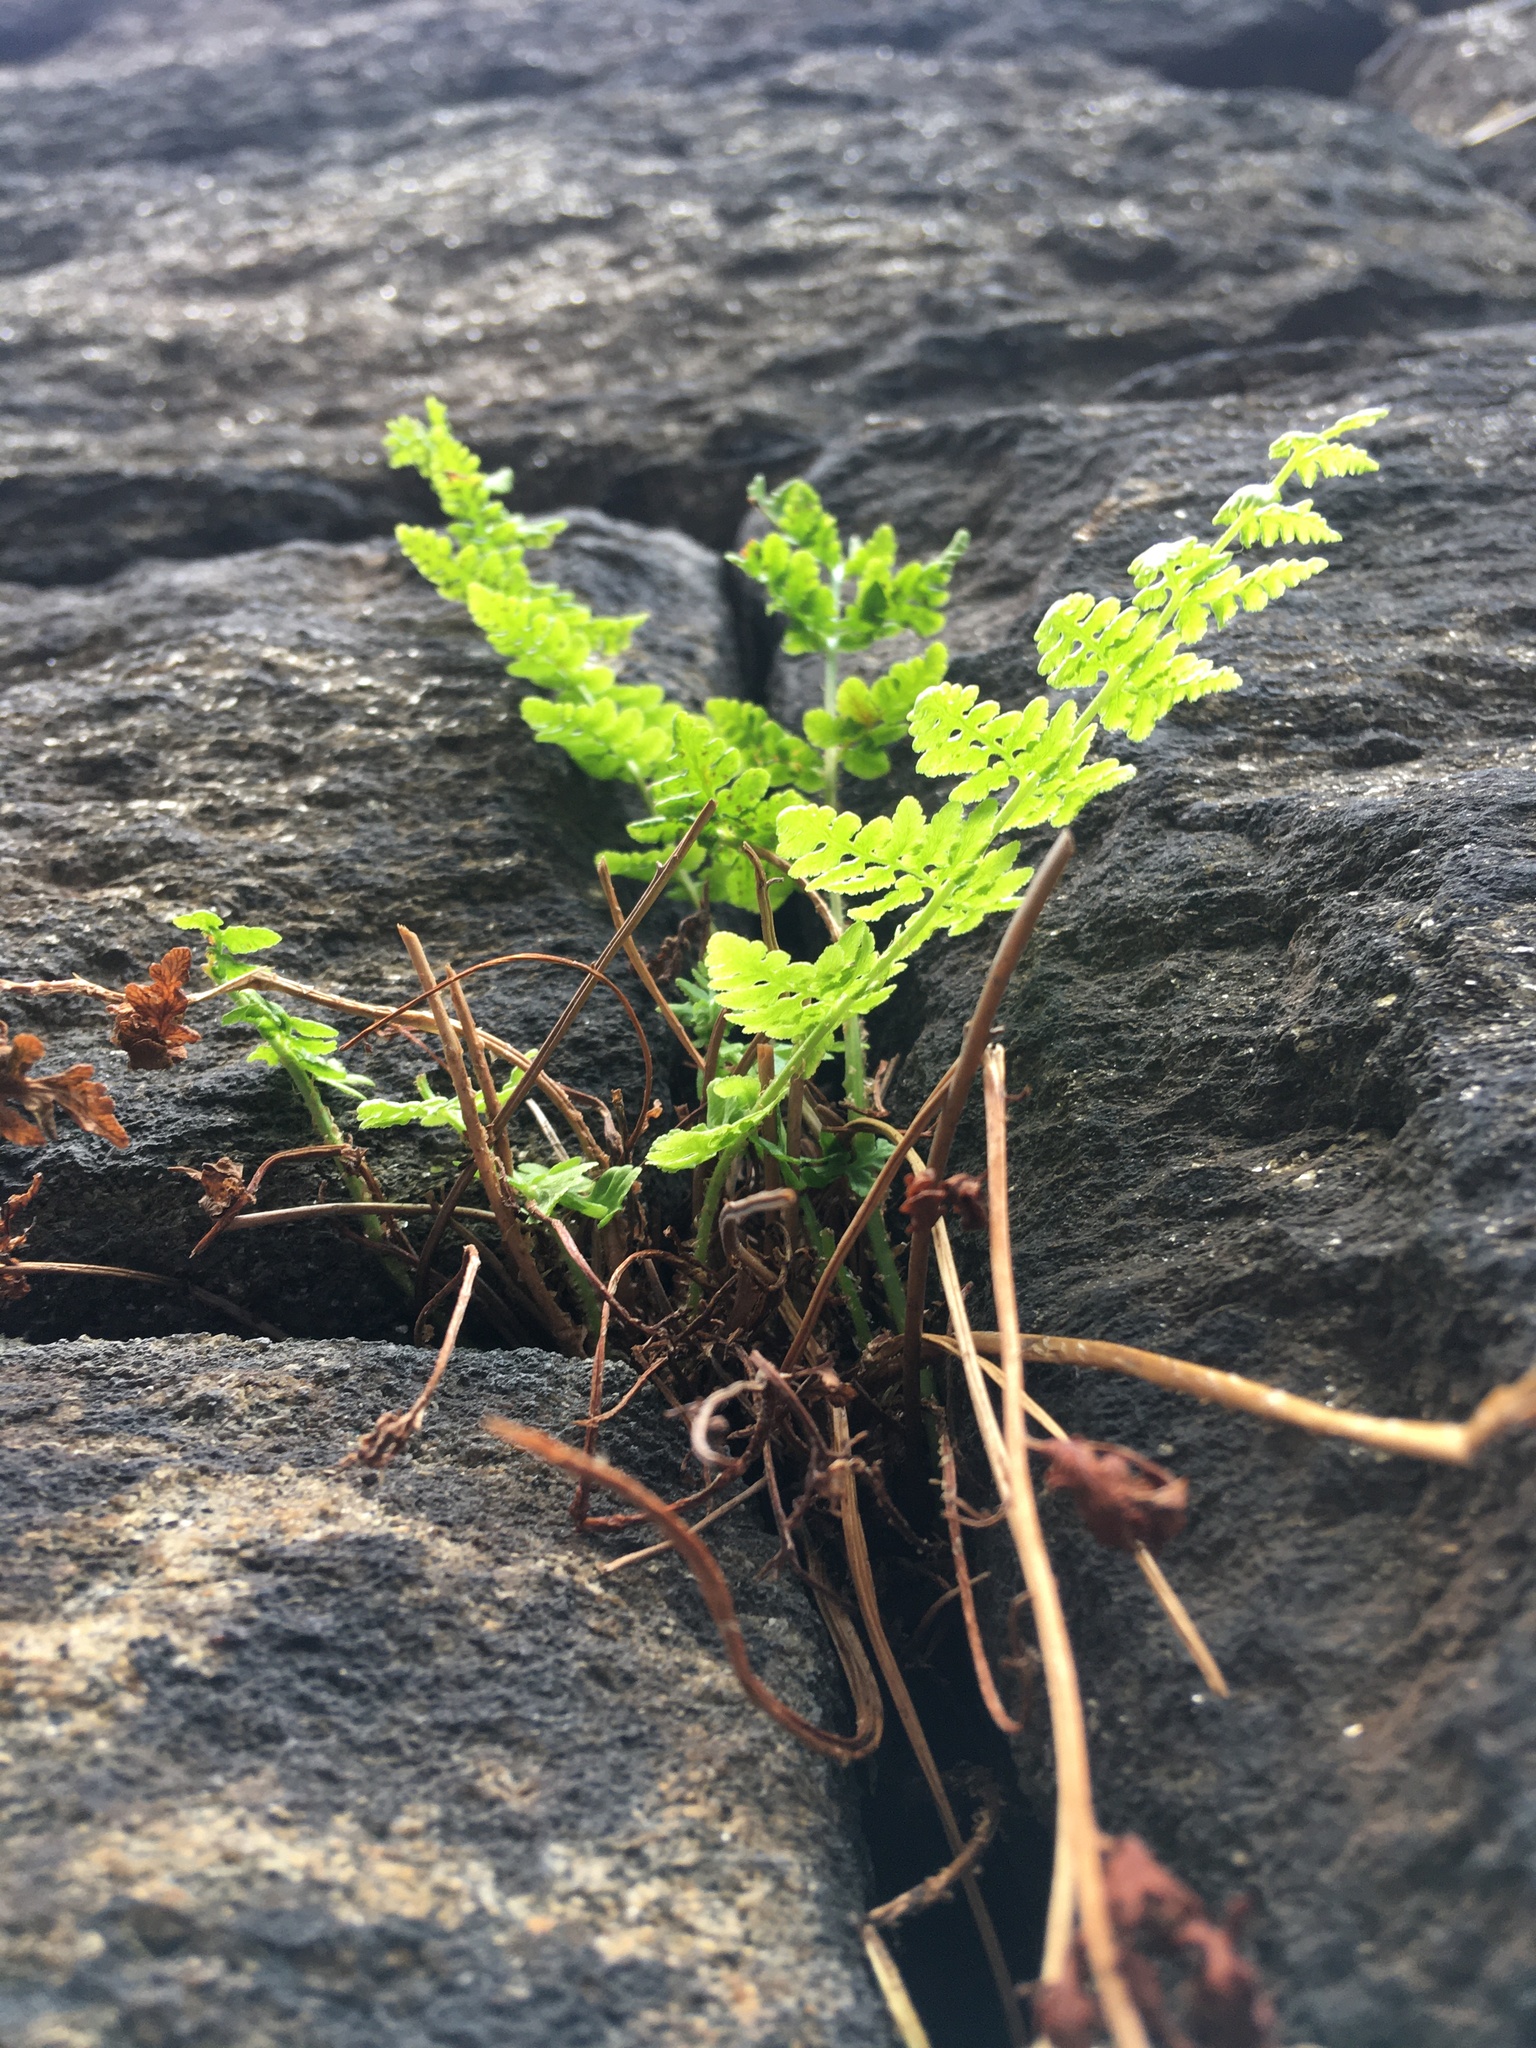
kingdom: Plantae
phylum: Tracheophyta
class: Polypodiopsida
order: Polypodiales
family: Woodsiaceae
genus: Physematium
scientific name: Physematium obtusum
